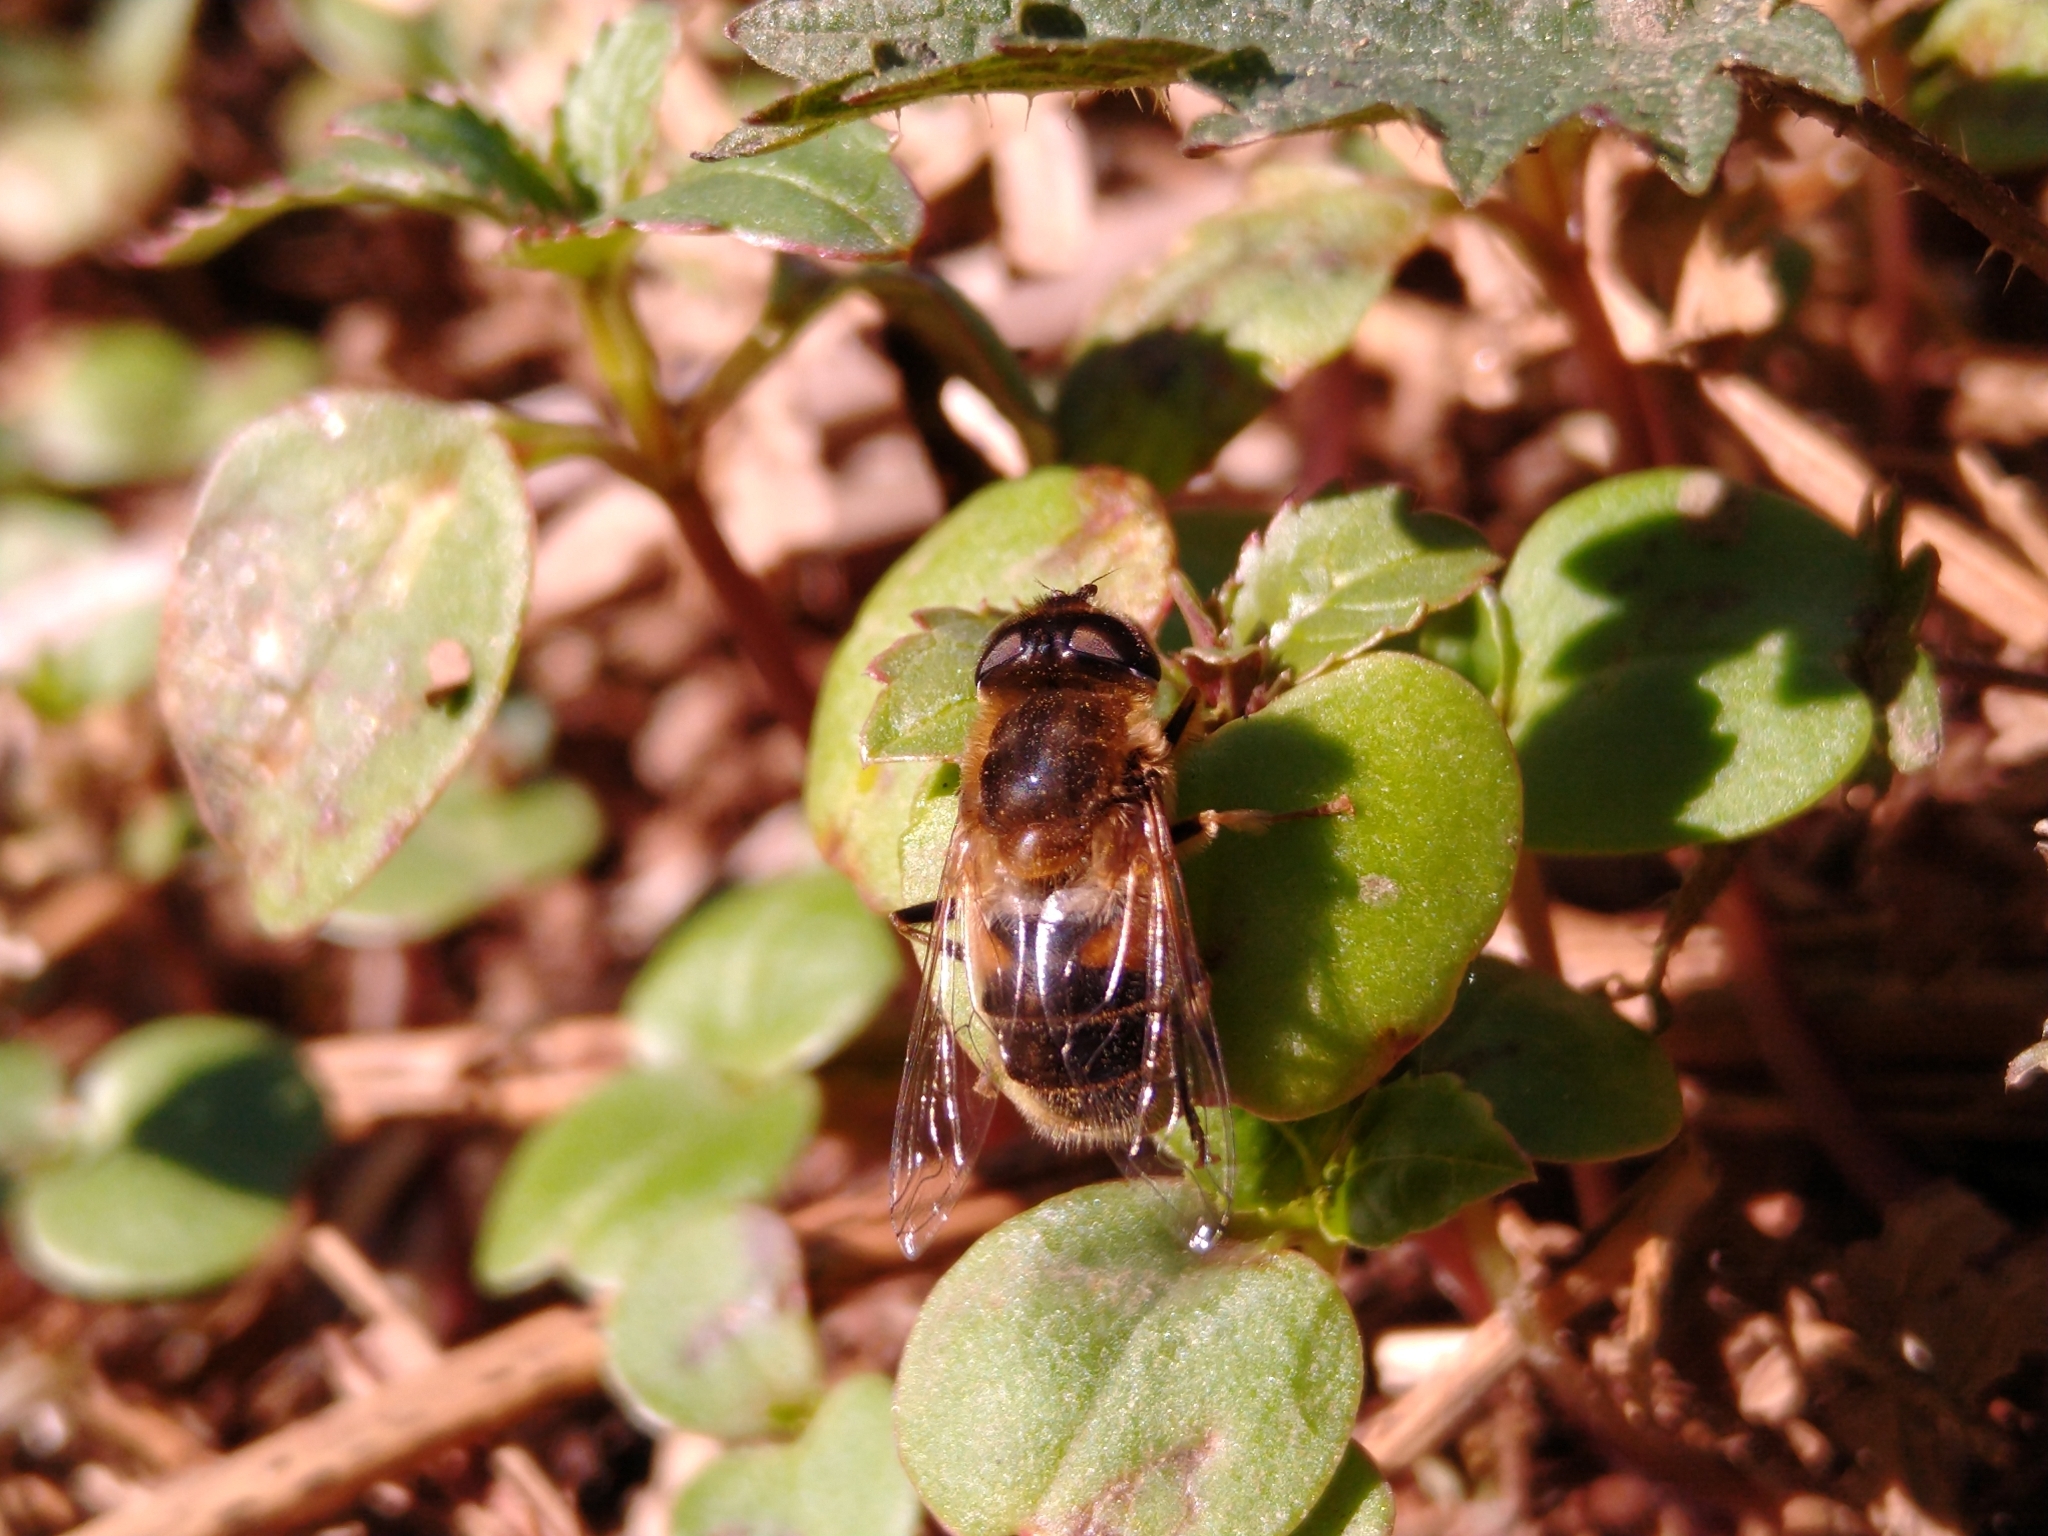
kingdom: Animalia
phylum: Arthropoda
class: Insecta
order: Diptera
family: Syrphidae
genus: Eristalis
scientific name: Eristalis pertinax
